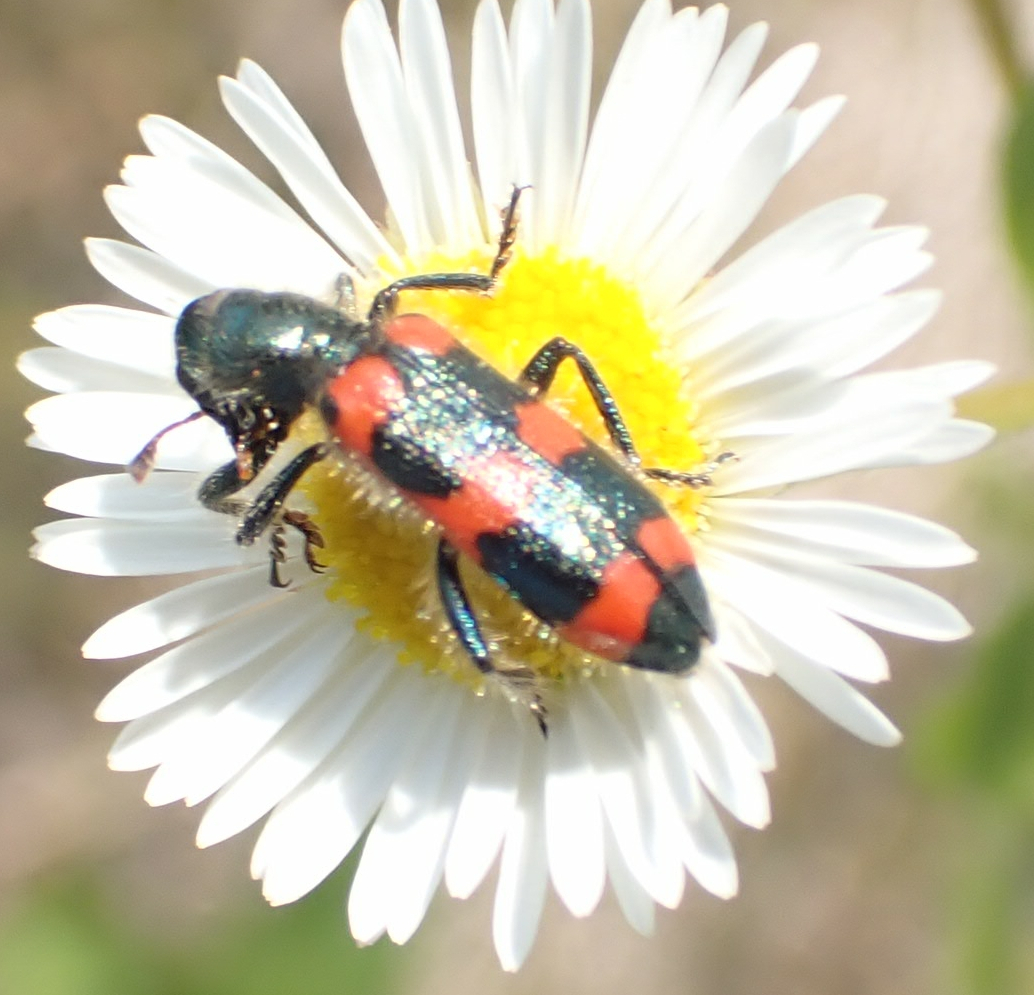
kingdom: Animalia
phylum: Arthropoda
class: Insecta
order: Coleoptera
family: Cleridae
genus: Trichodes
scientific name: Trichodes nutalli
